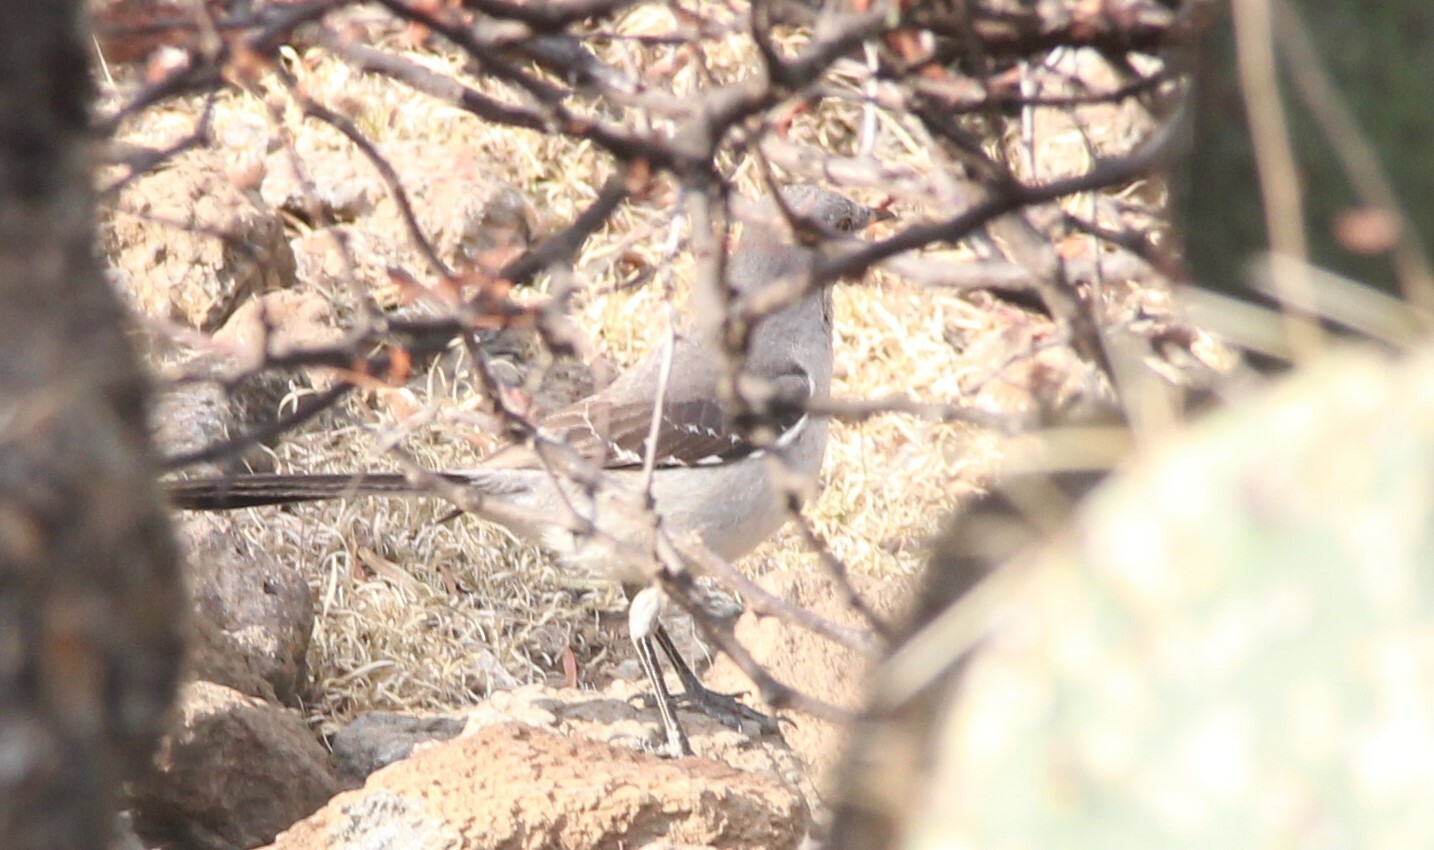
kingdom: Animalia
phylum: Chordata
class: Aves
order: Passeriformes
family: Mimidae
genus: Mimus
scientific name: Mimus polyglottos
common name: Northern mockingbird
